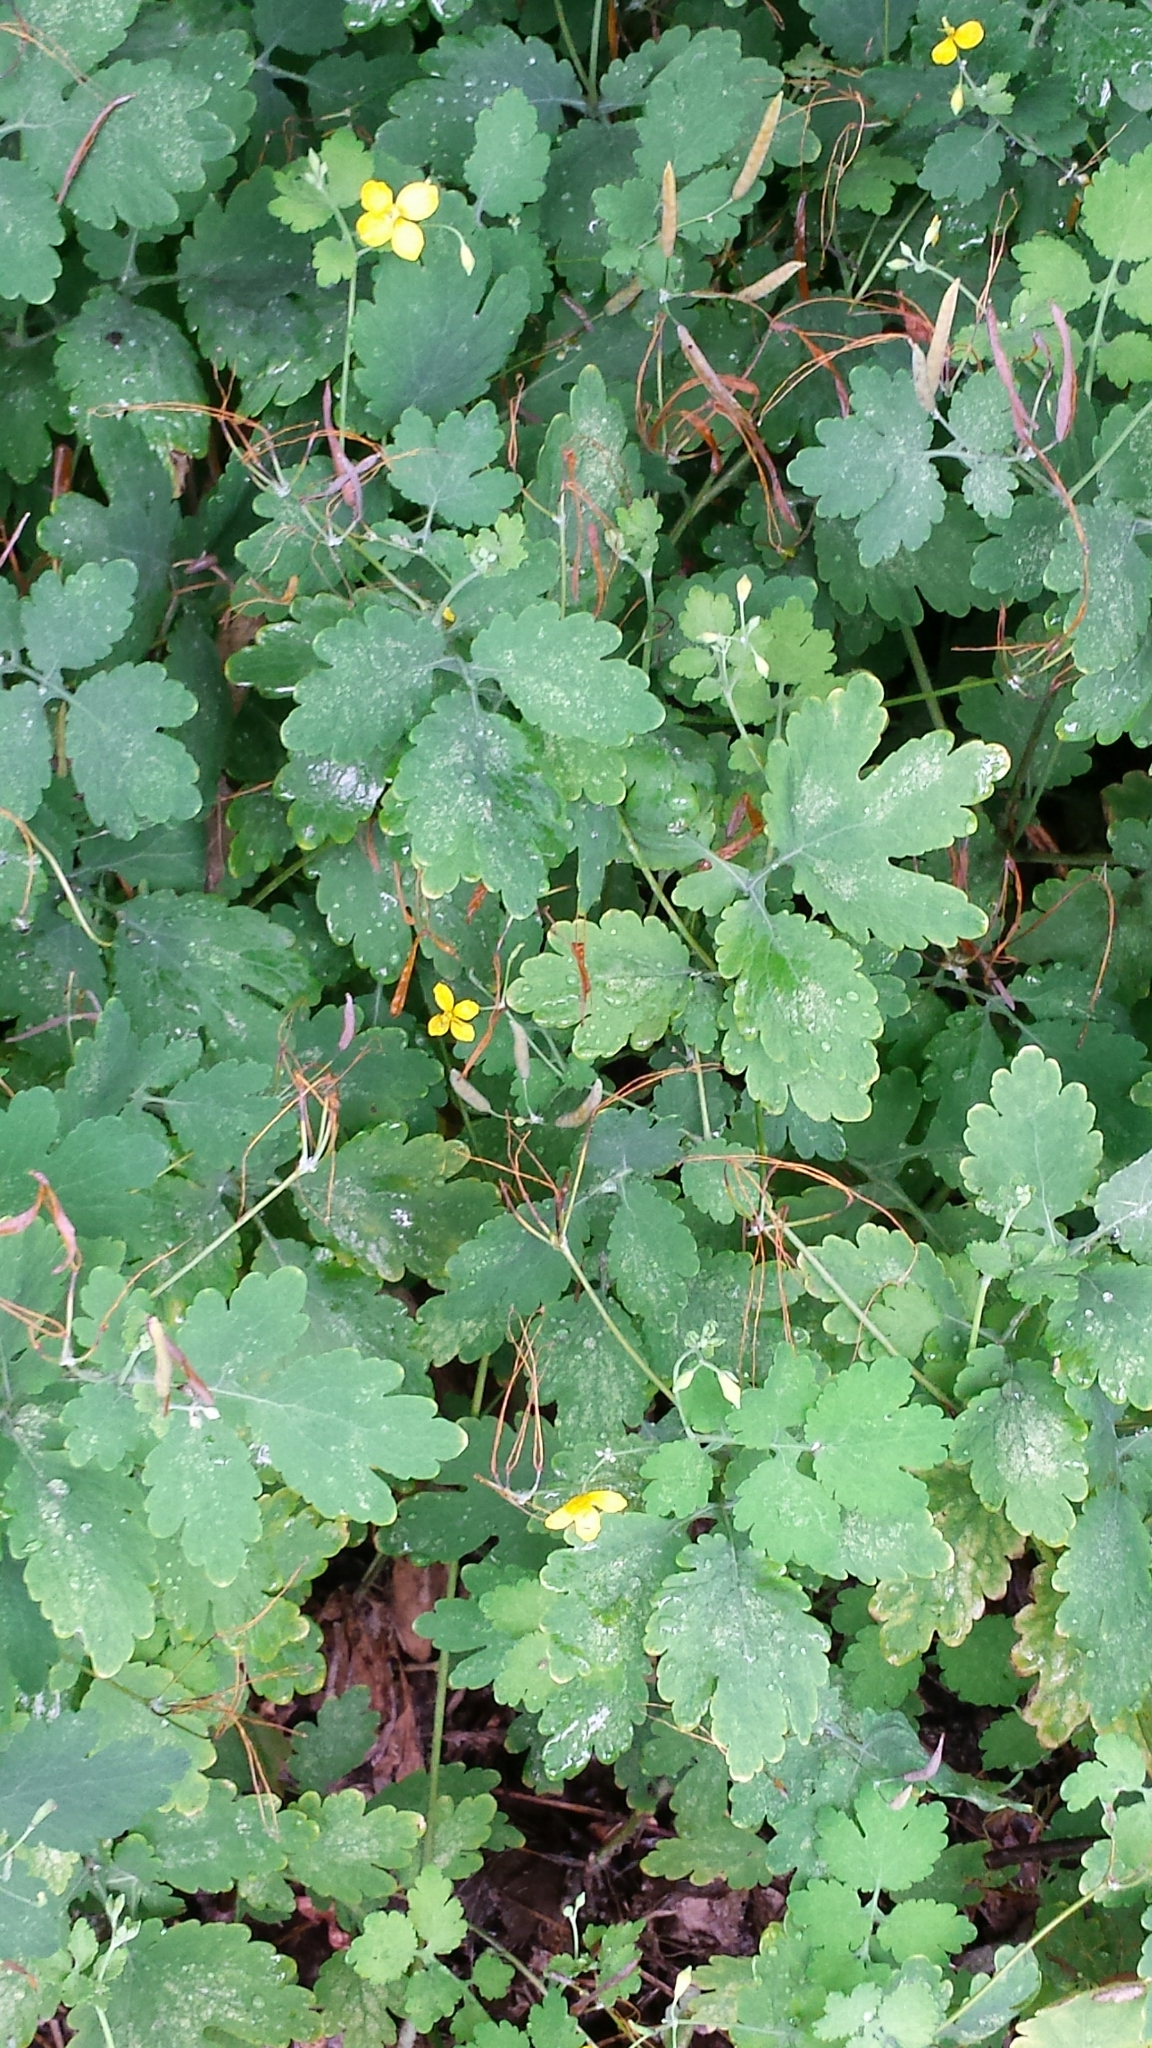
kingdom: Plantae
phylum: Tracheophyta
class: Magnoliopsida
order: Ranunculales
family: Papaveraceae
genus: Chelidonium
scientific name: Chelidonium majus
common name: Greater celandine
